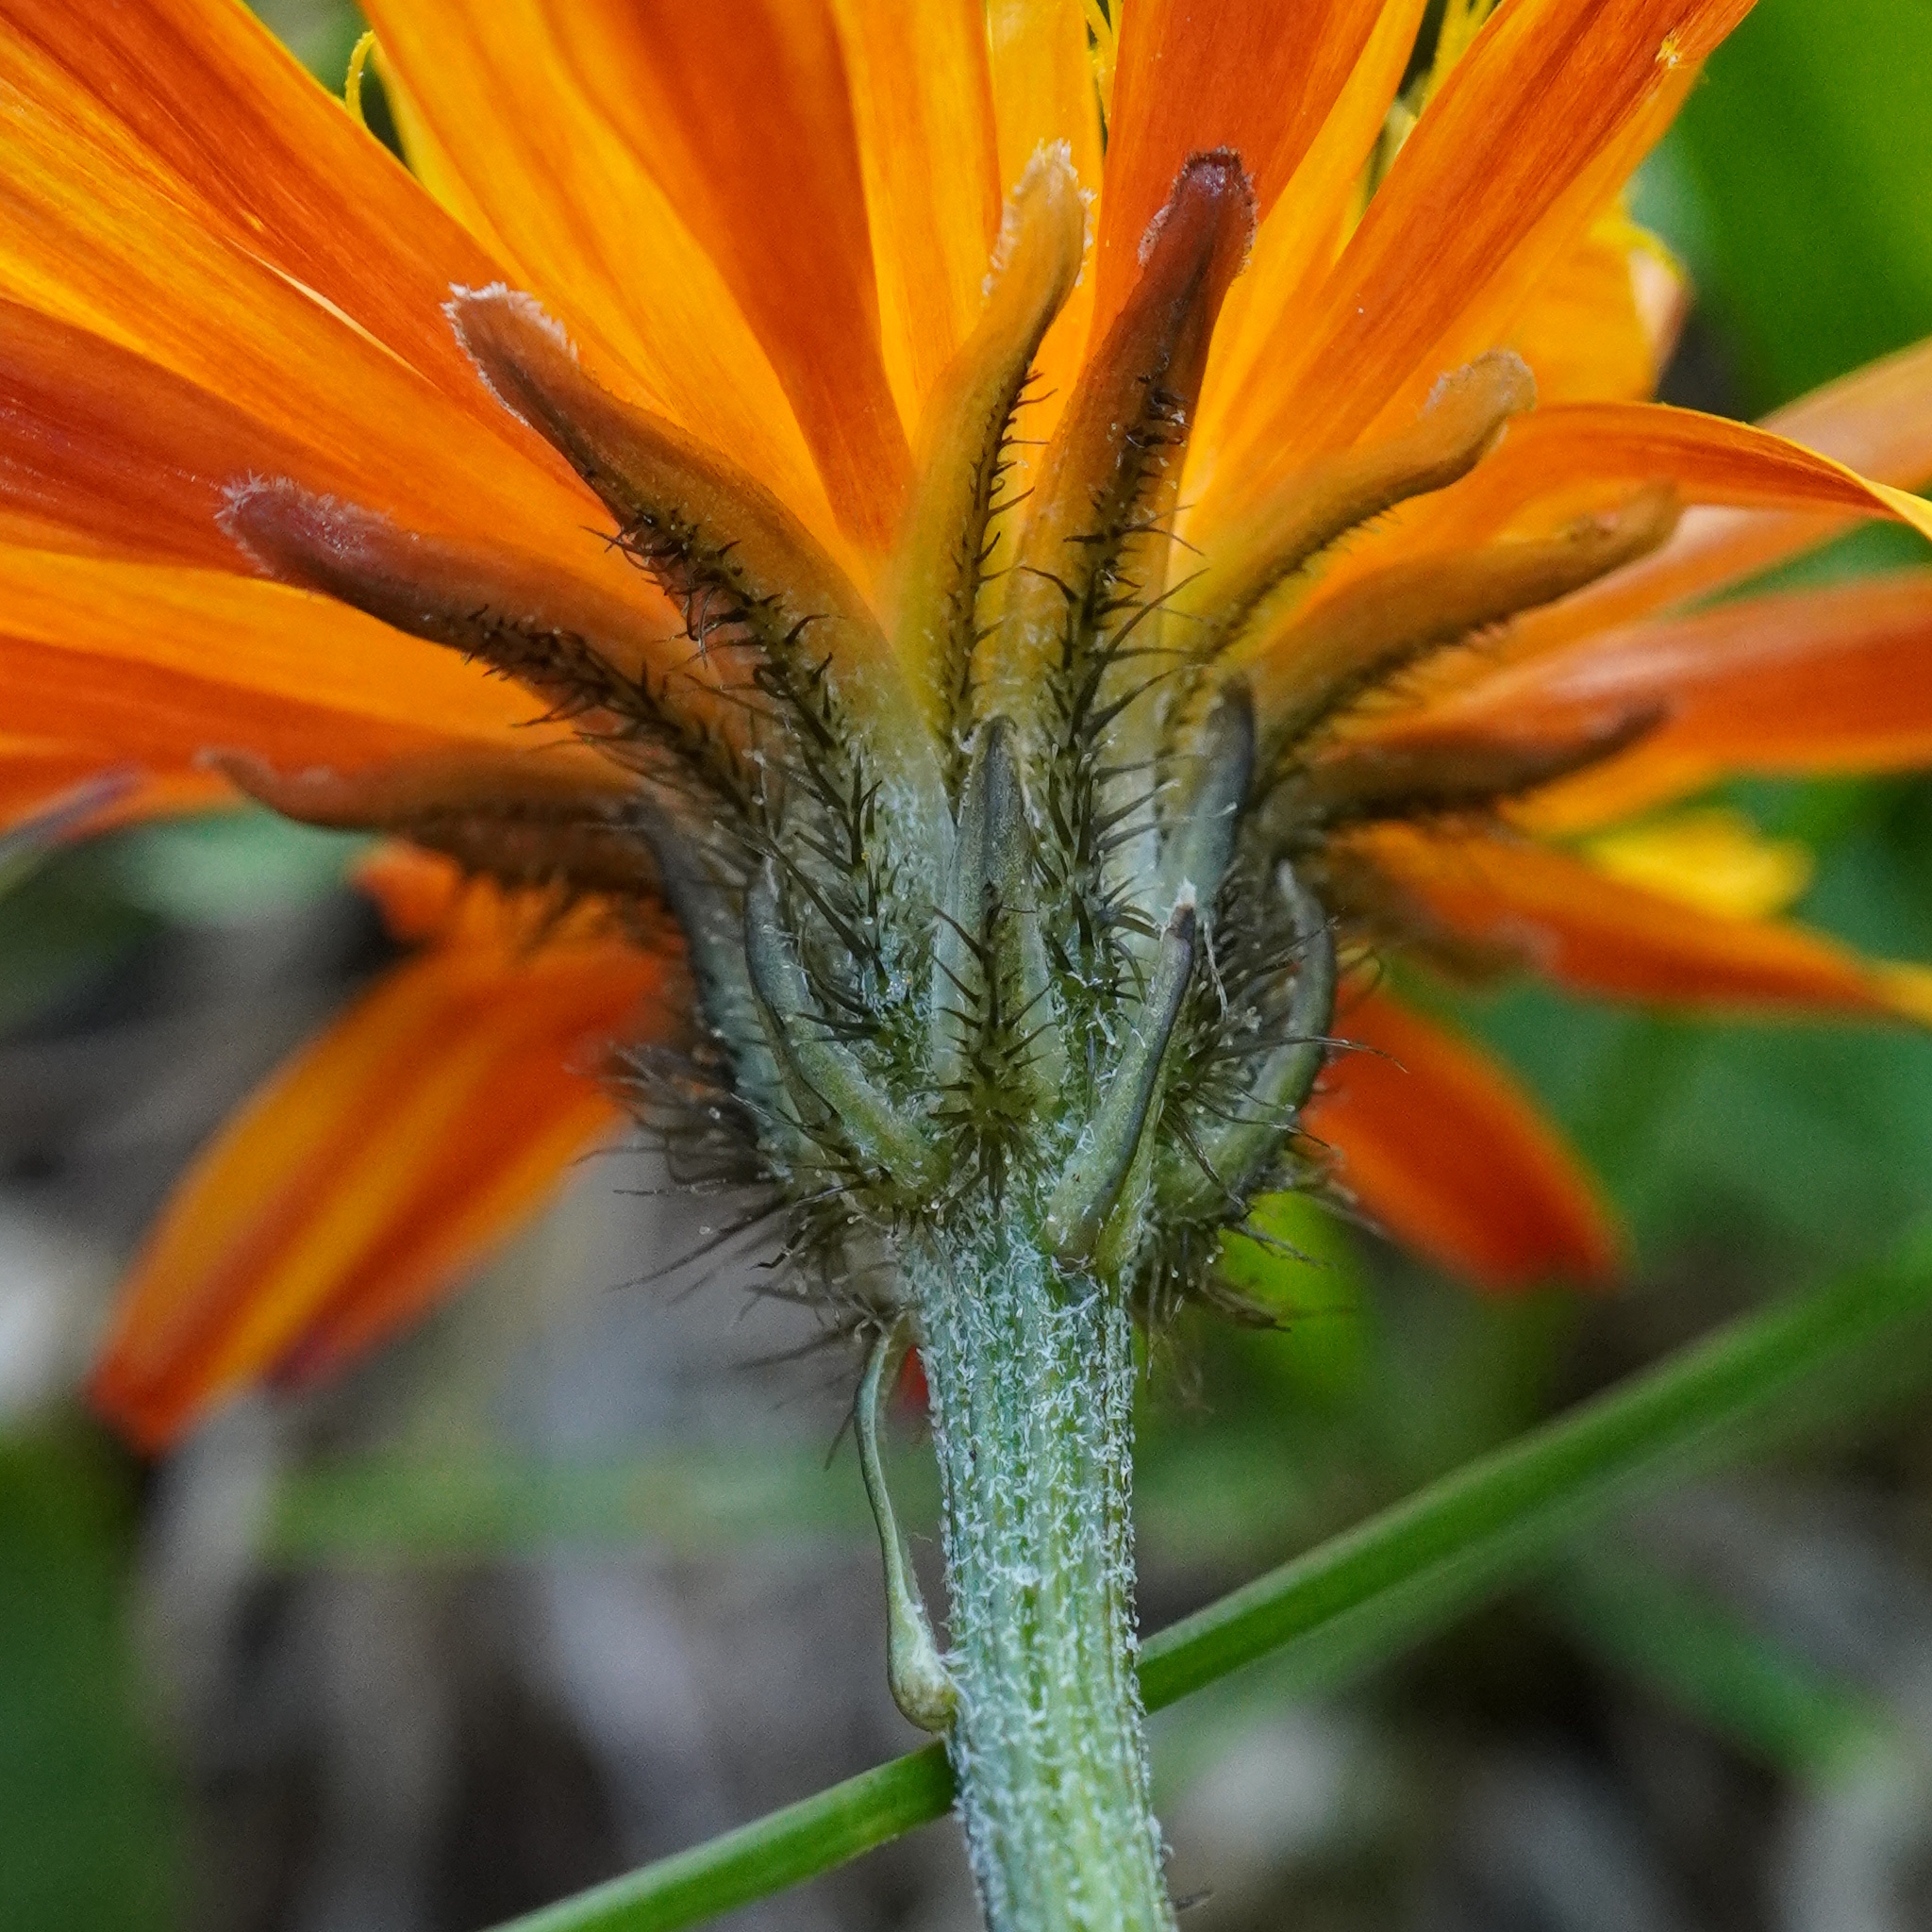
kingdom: Plantae
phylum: Tracheophyta
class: Magnoliopsida
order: Asterales
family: Asteraceae
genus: Crepis
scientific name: Crepis aurea
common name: Golden hawk's-beard
